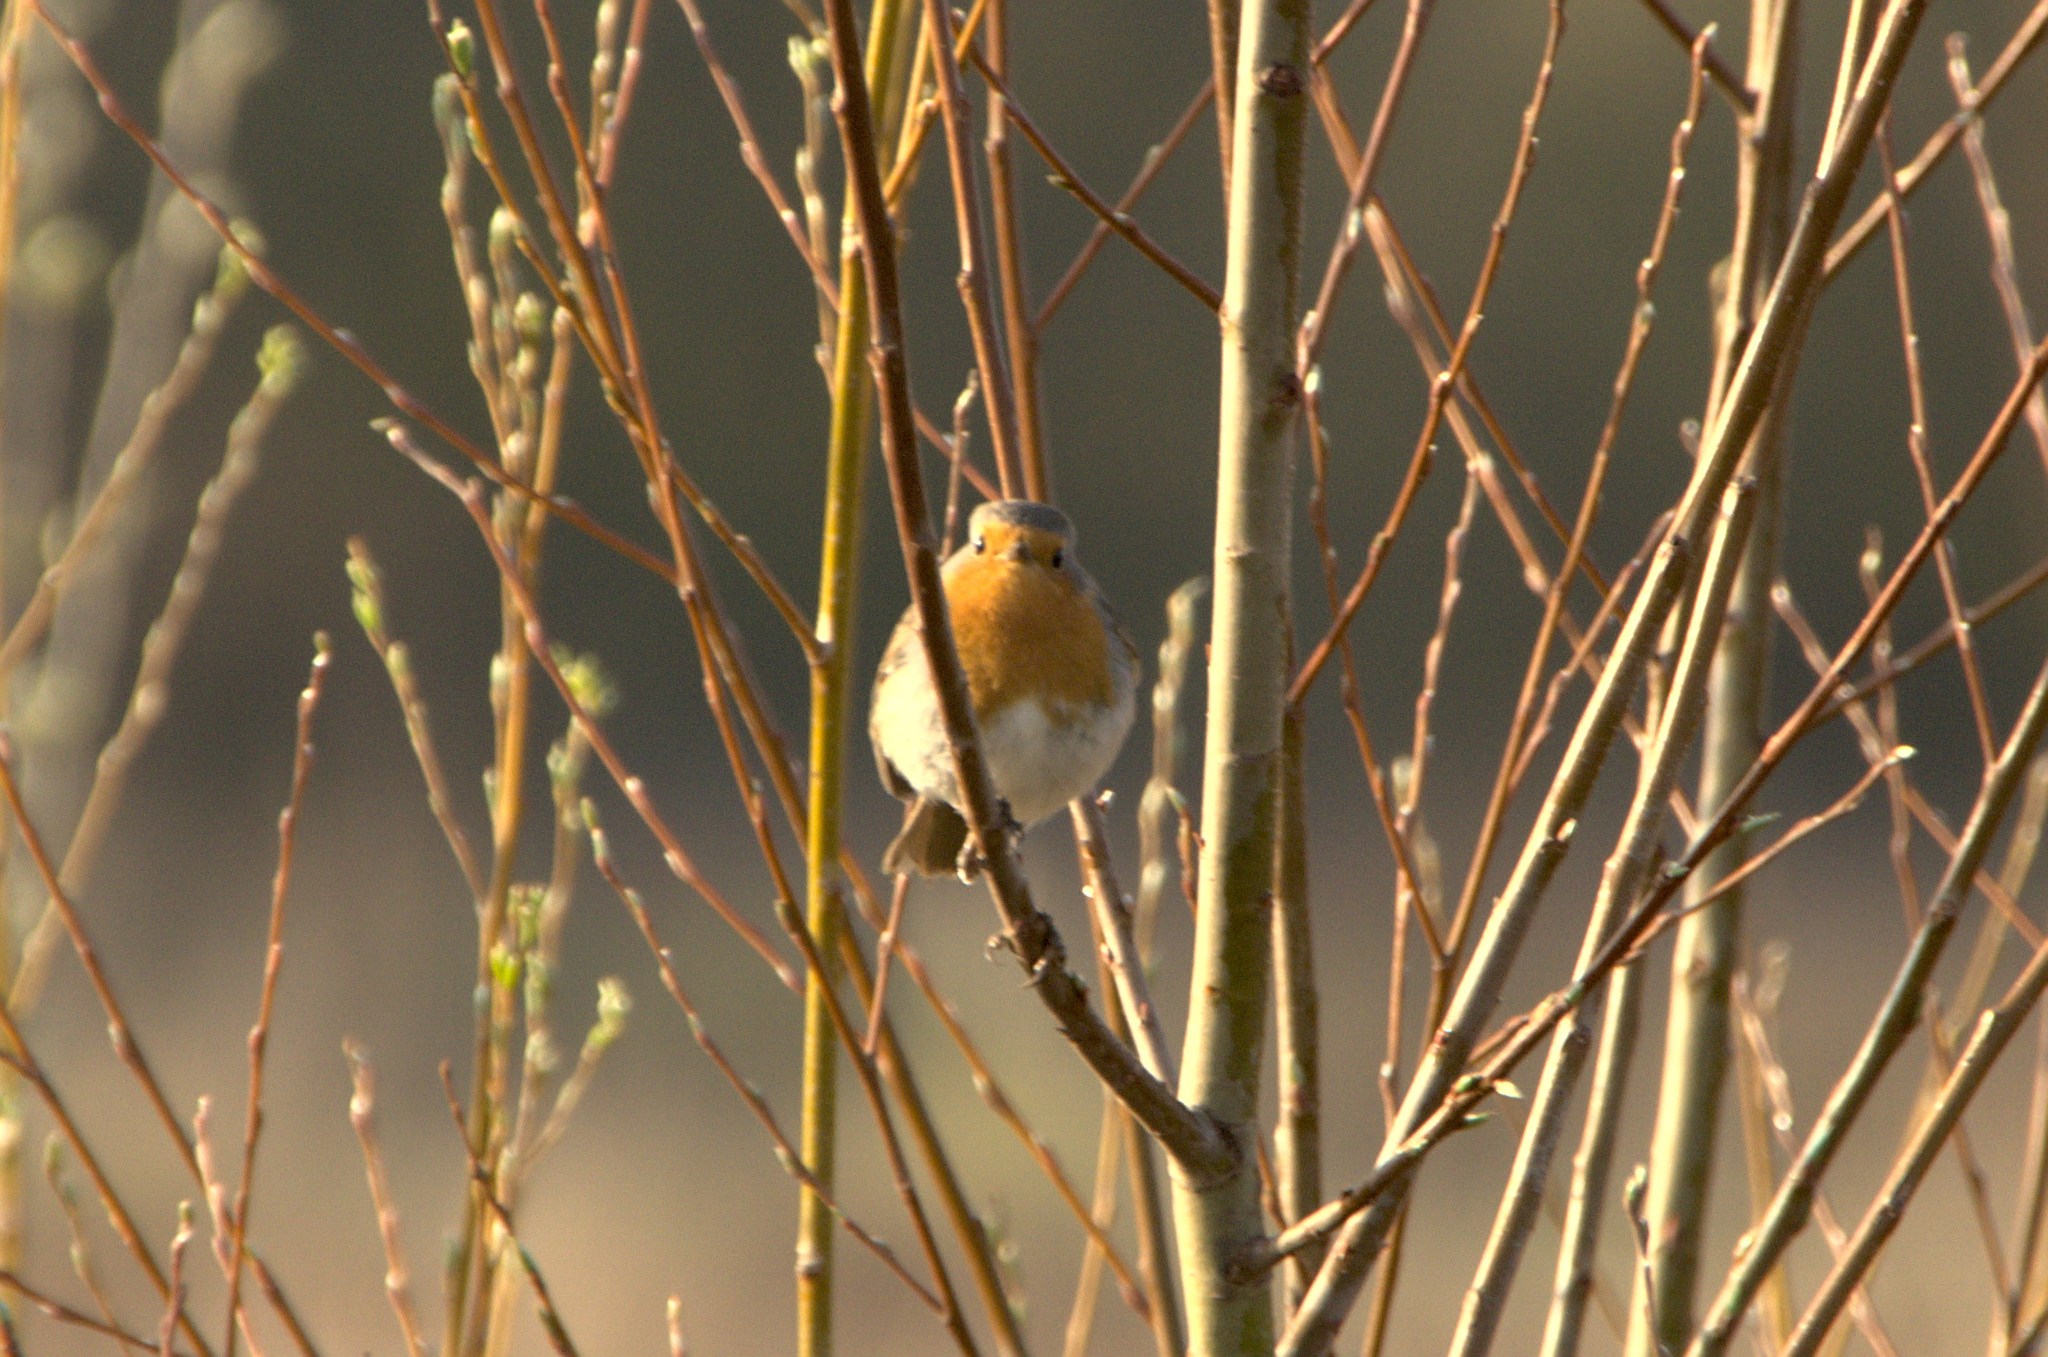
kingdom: Animalia
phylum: Chordata
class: Aves
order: Passeriformes
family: Muscicapidae
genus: Erithacus
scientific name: Erithacus rubecula
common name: European robin
